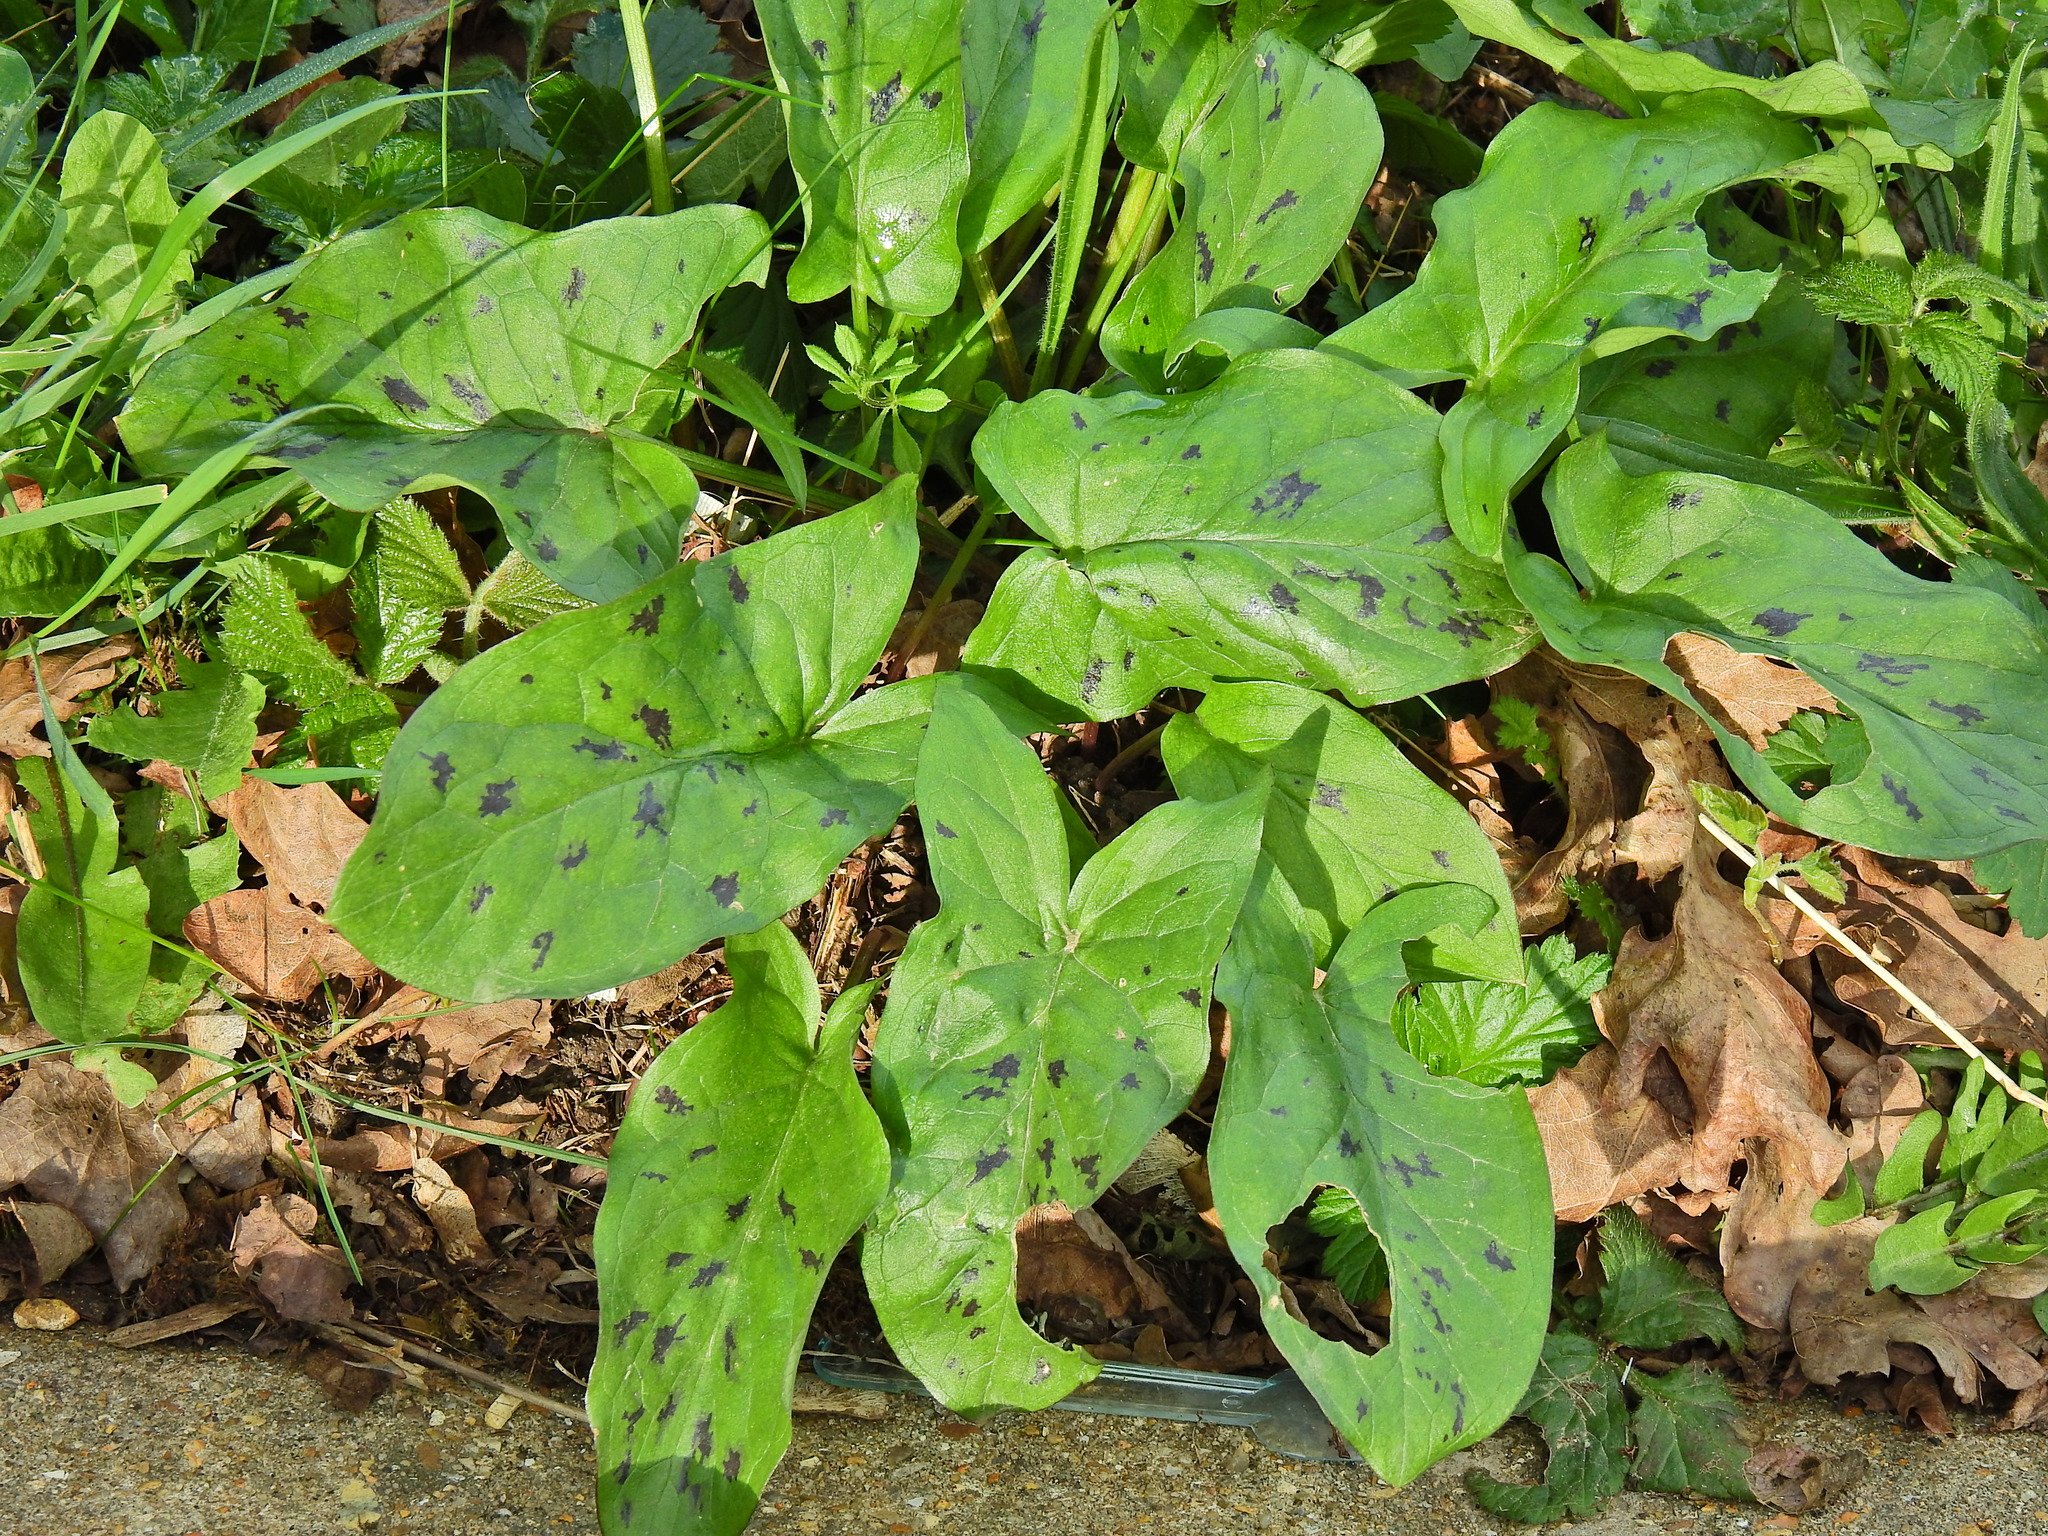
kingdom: Plantae
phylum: Tracheophyta
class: Liliopsida
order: Alismatales
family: Araceae
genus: Arum
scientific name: Arum maculatum
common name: Lords-and-ladies
